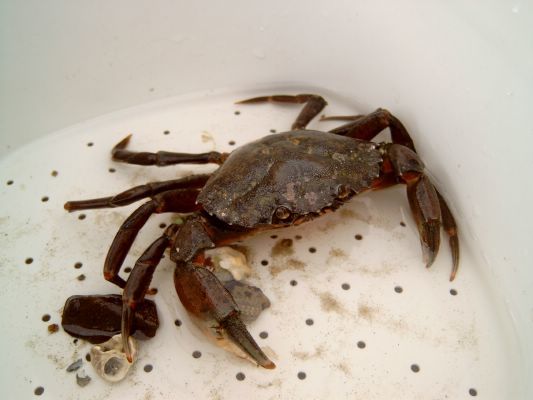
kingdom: Animalia
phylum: Arthropoda
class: Malacostraca
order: Decapoda
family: Carcinidae
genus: Carcinus
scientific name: Carcinus maenas
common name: European green crab
